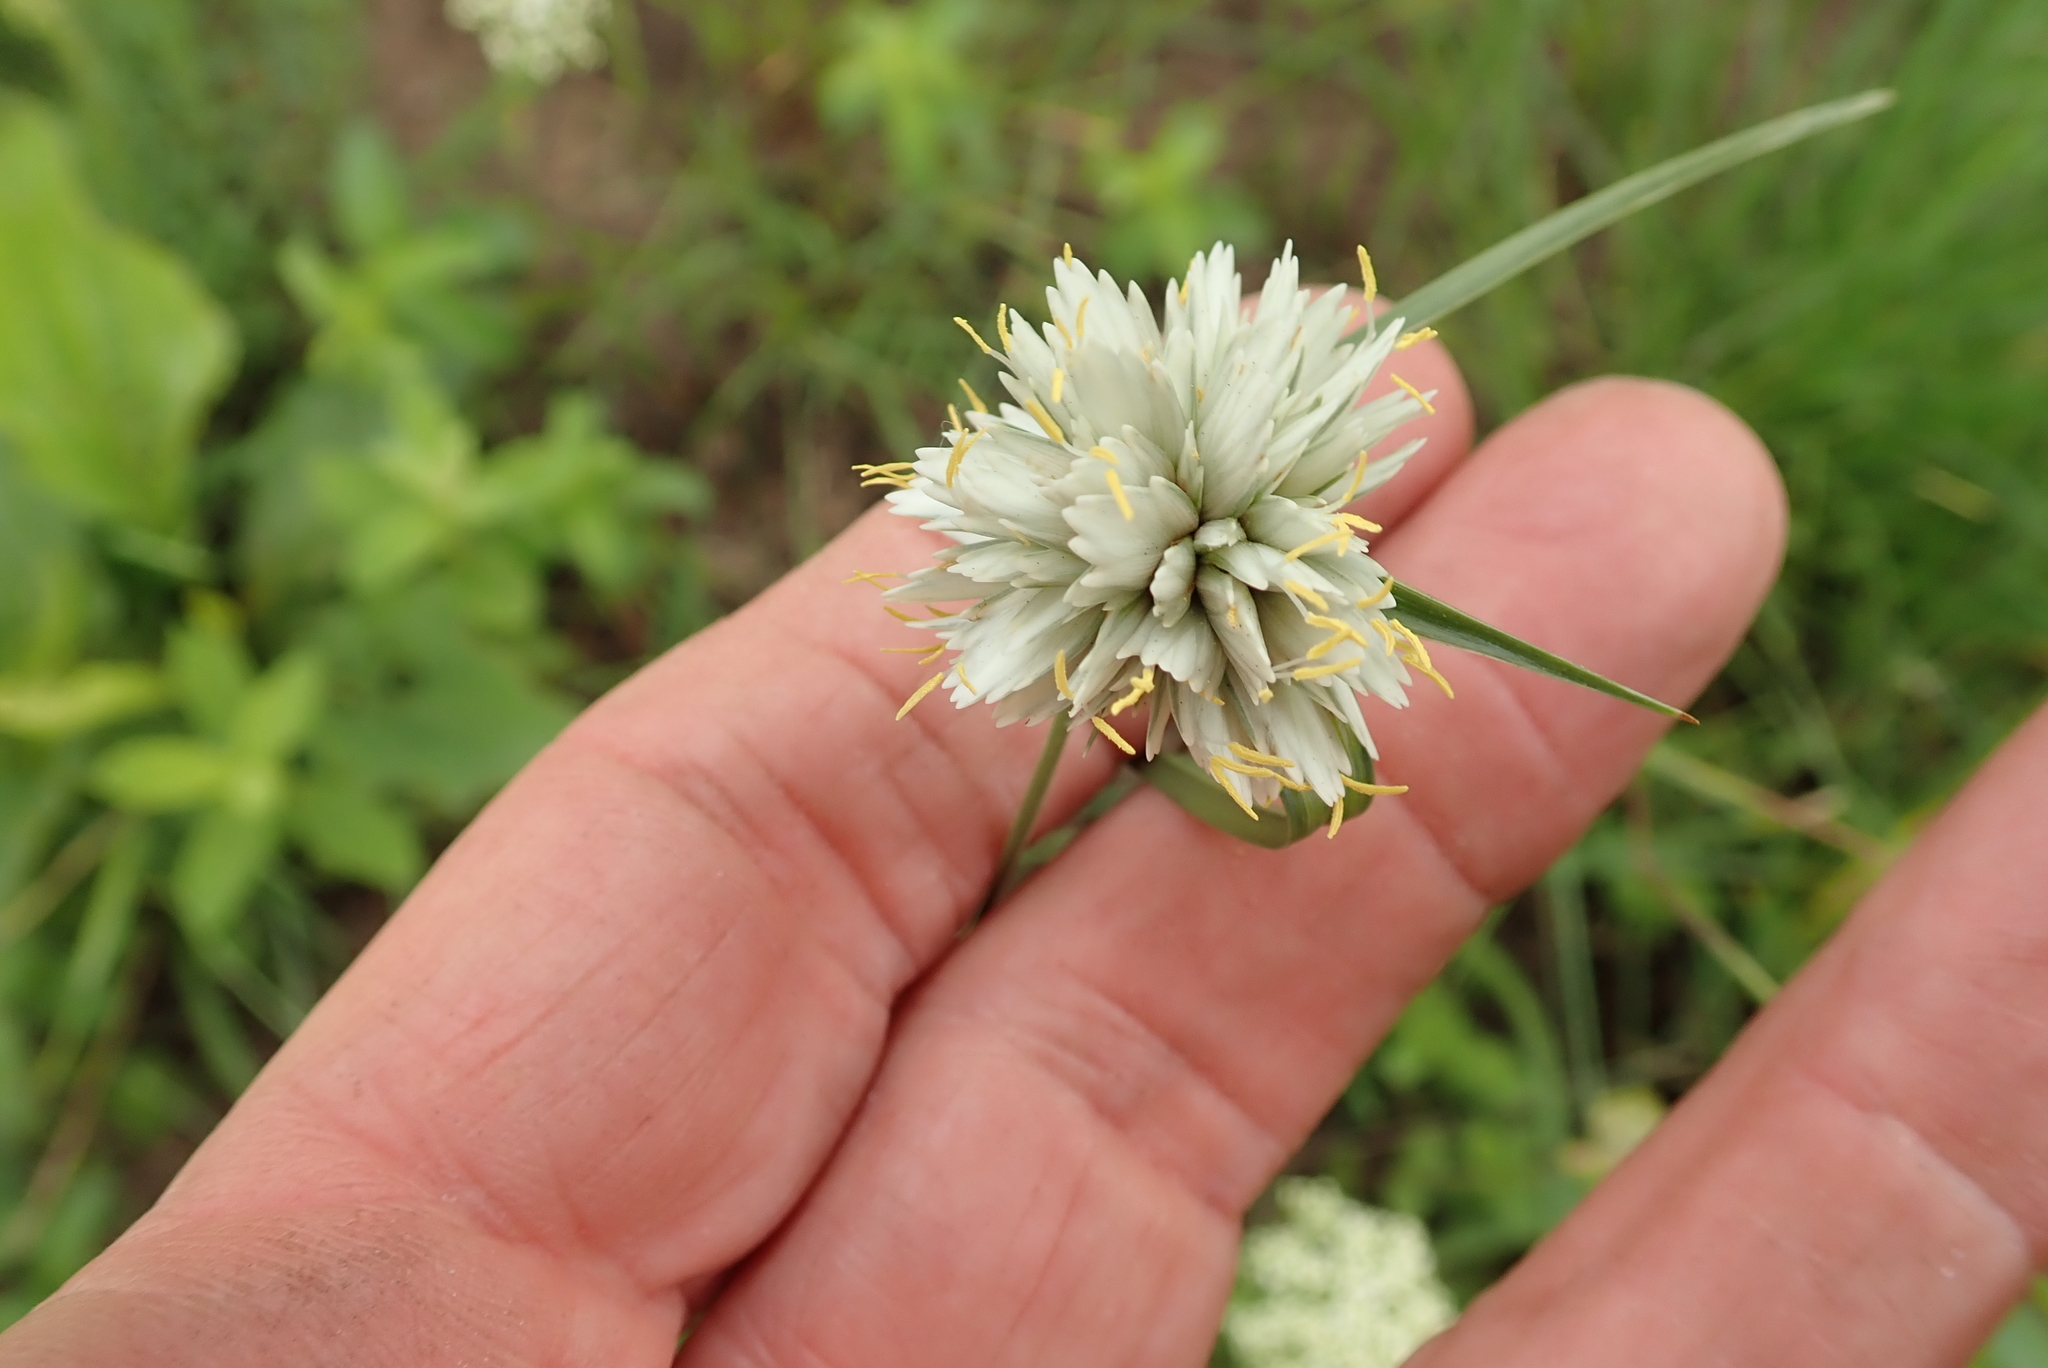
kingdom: Plantae
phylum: Tracheophyta
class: Liliopsida
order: Poales
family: Cyperaceae
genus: Cyperus
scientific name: Cyperus niveus
